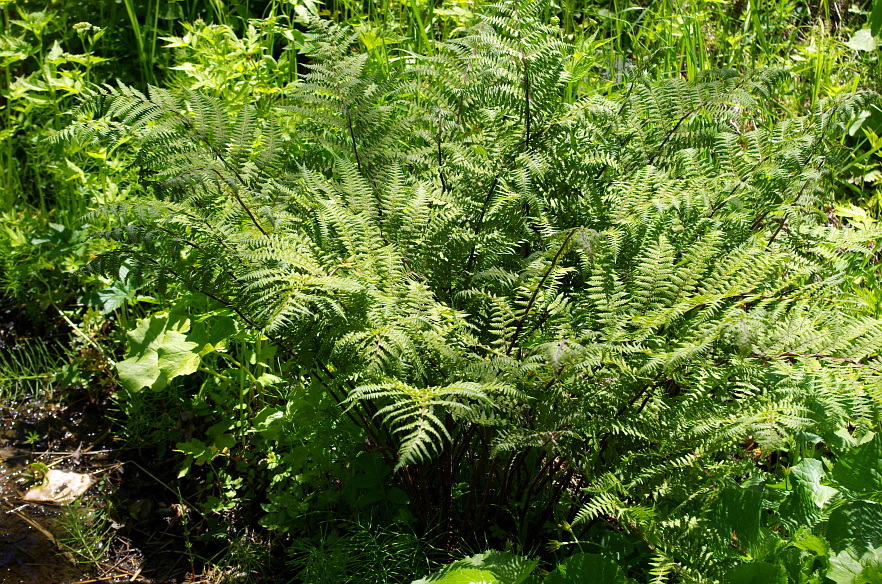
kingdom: Plantae
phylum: Tracheophyta
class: Polypodiopsida
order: Polypodiales
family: Athyriaceae
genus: Athyrium
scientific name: Athyrium filix-femina
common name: Lady fern
